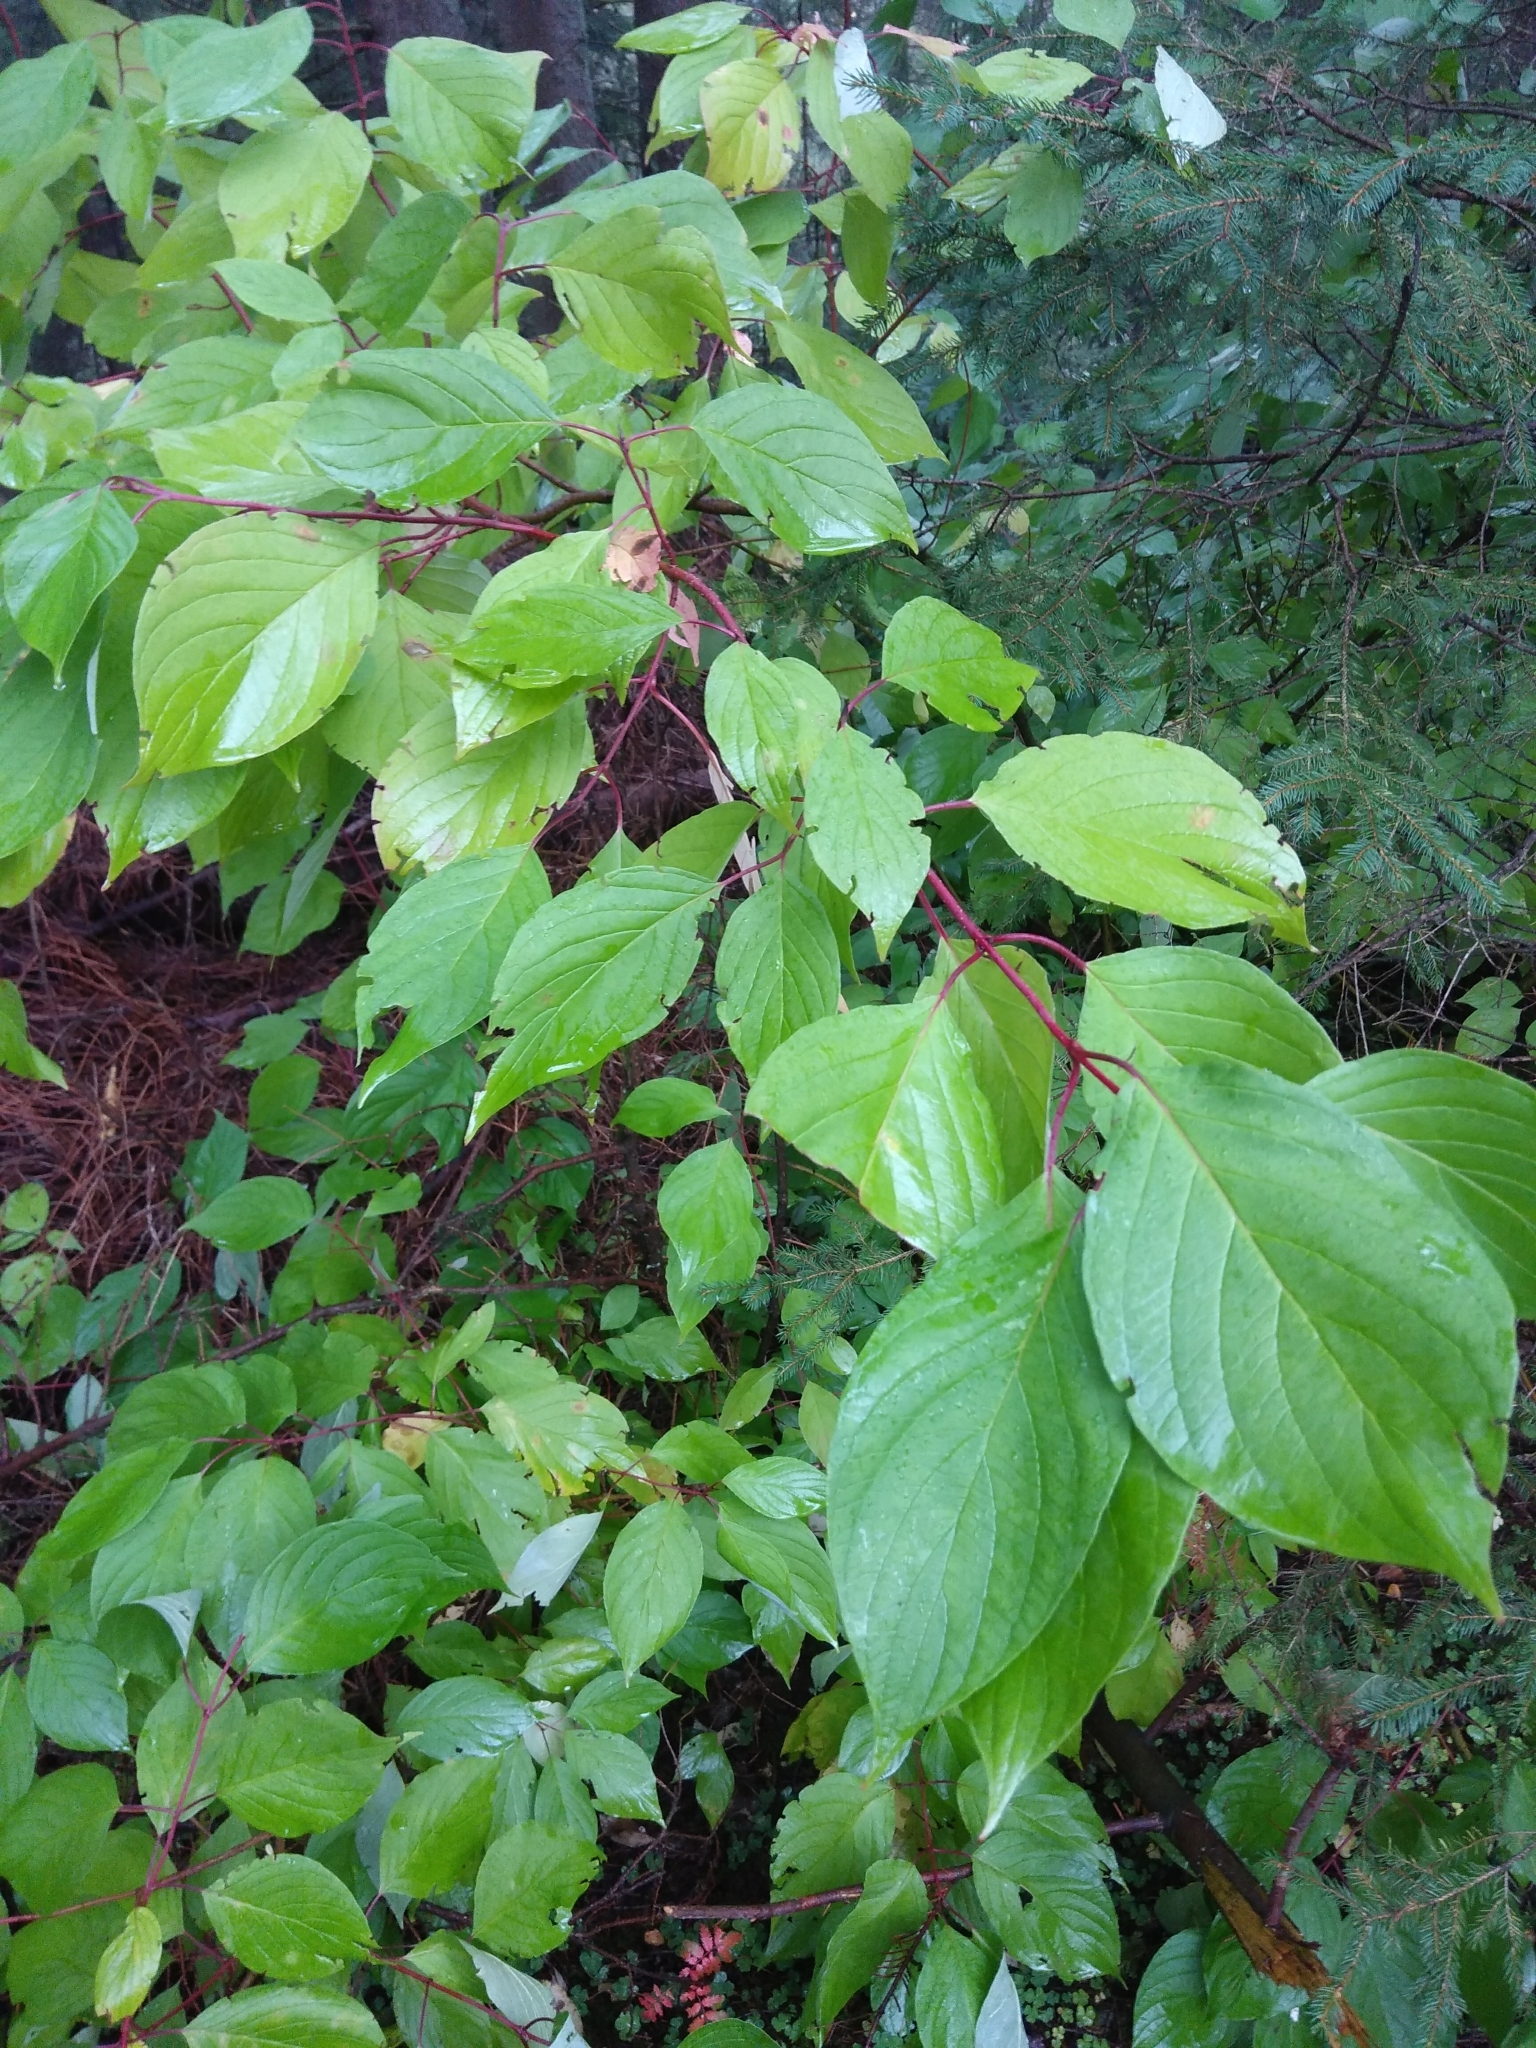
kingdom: Plantae
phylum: Tracheophyta
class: Magnoliopsida
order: Cornales
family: Cornaceae
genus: Cornus
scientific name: Cornus sanguinea
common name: Dogwood
